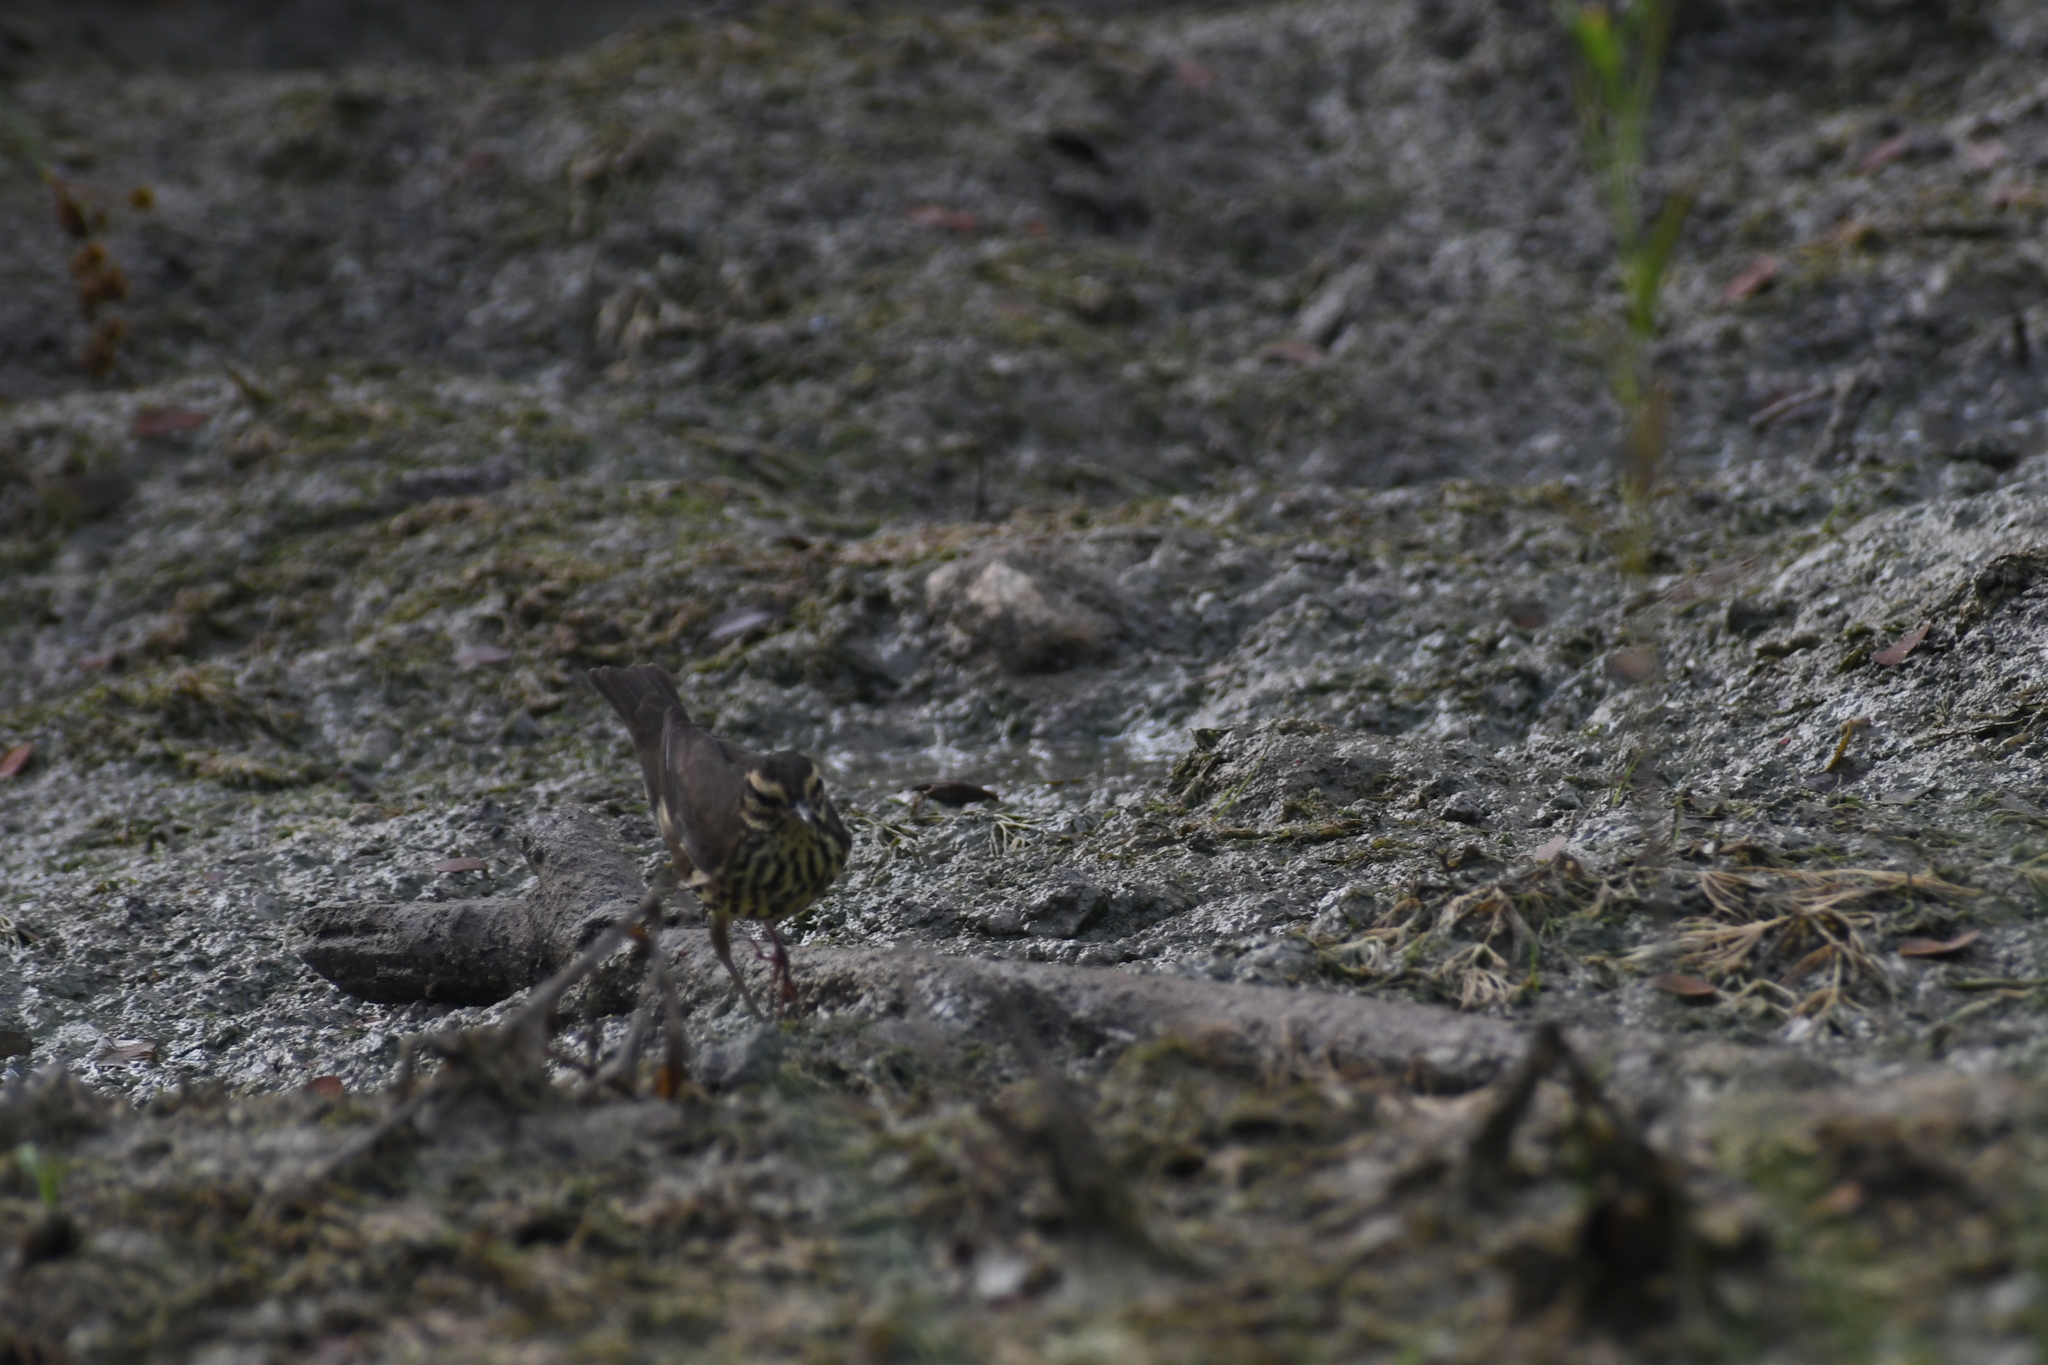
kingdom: Animalia
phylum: Chordata
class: Aves
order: Passeriformes
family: Parulidae
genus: Parkesia
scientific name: Parkesia noveboracensis
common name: Northern waterthrush
